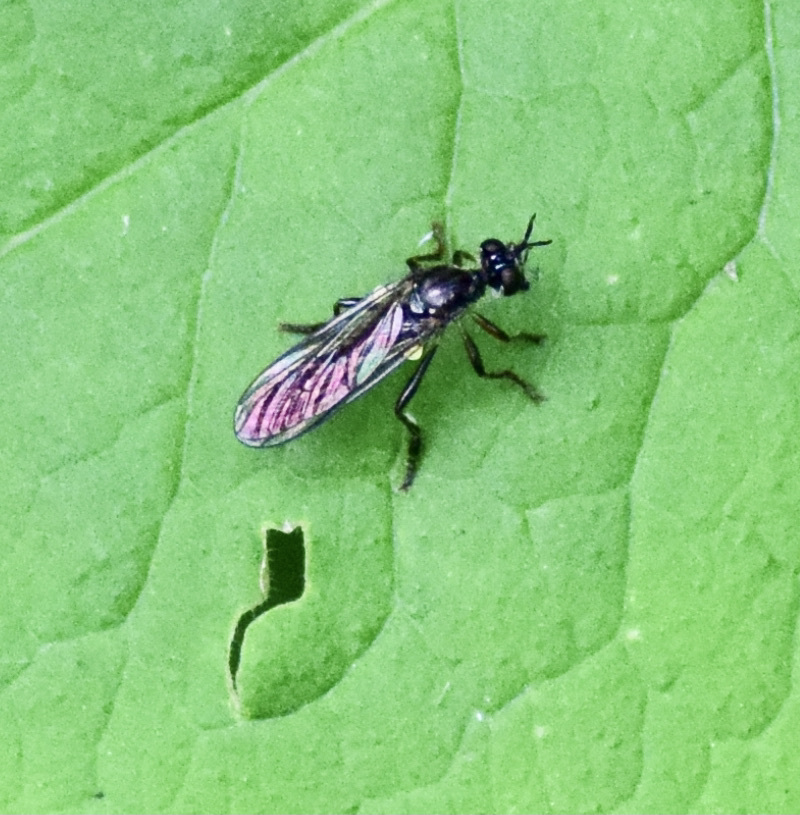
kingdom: Animalia
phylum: Arthropoda
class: Insecta
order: Diptera
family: Asilidae
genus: Dioctria
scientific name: Dioctria hyalipennis
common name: Stripe-legged robberfly
